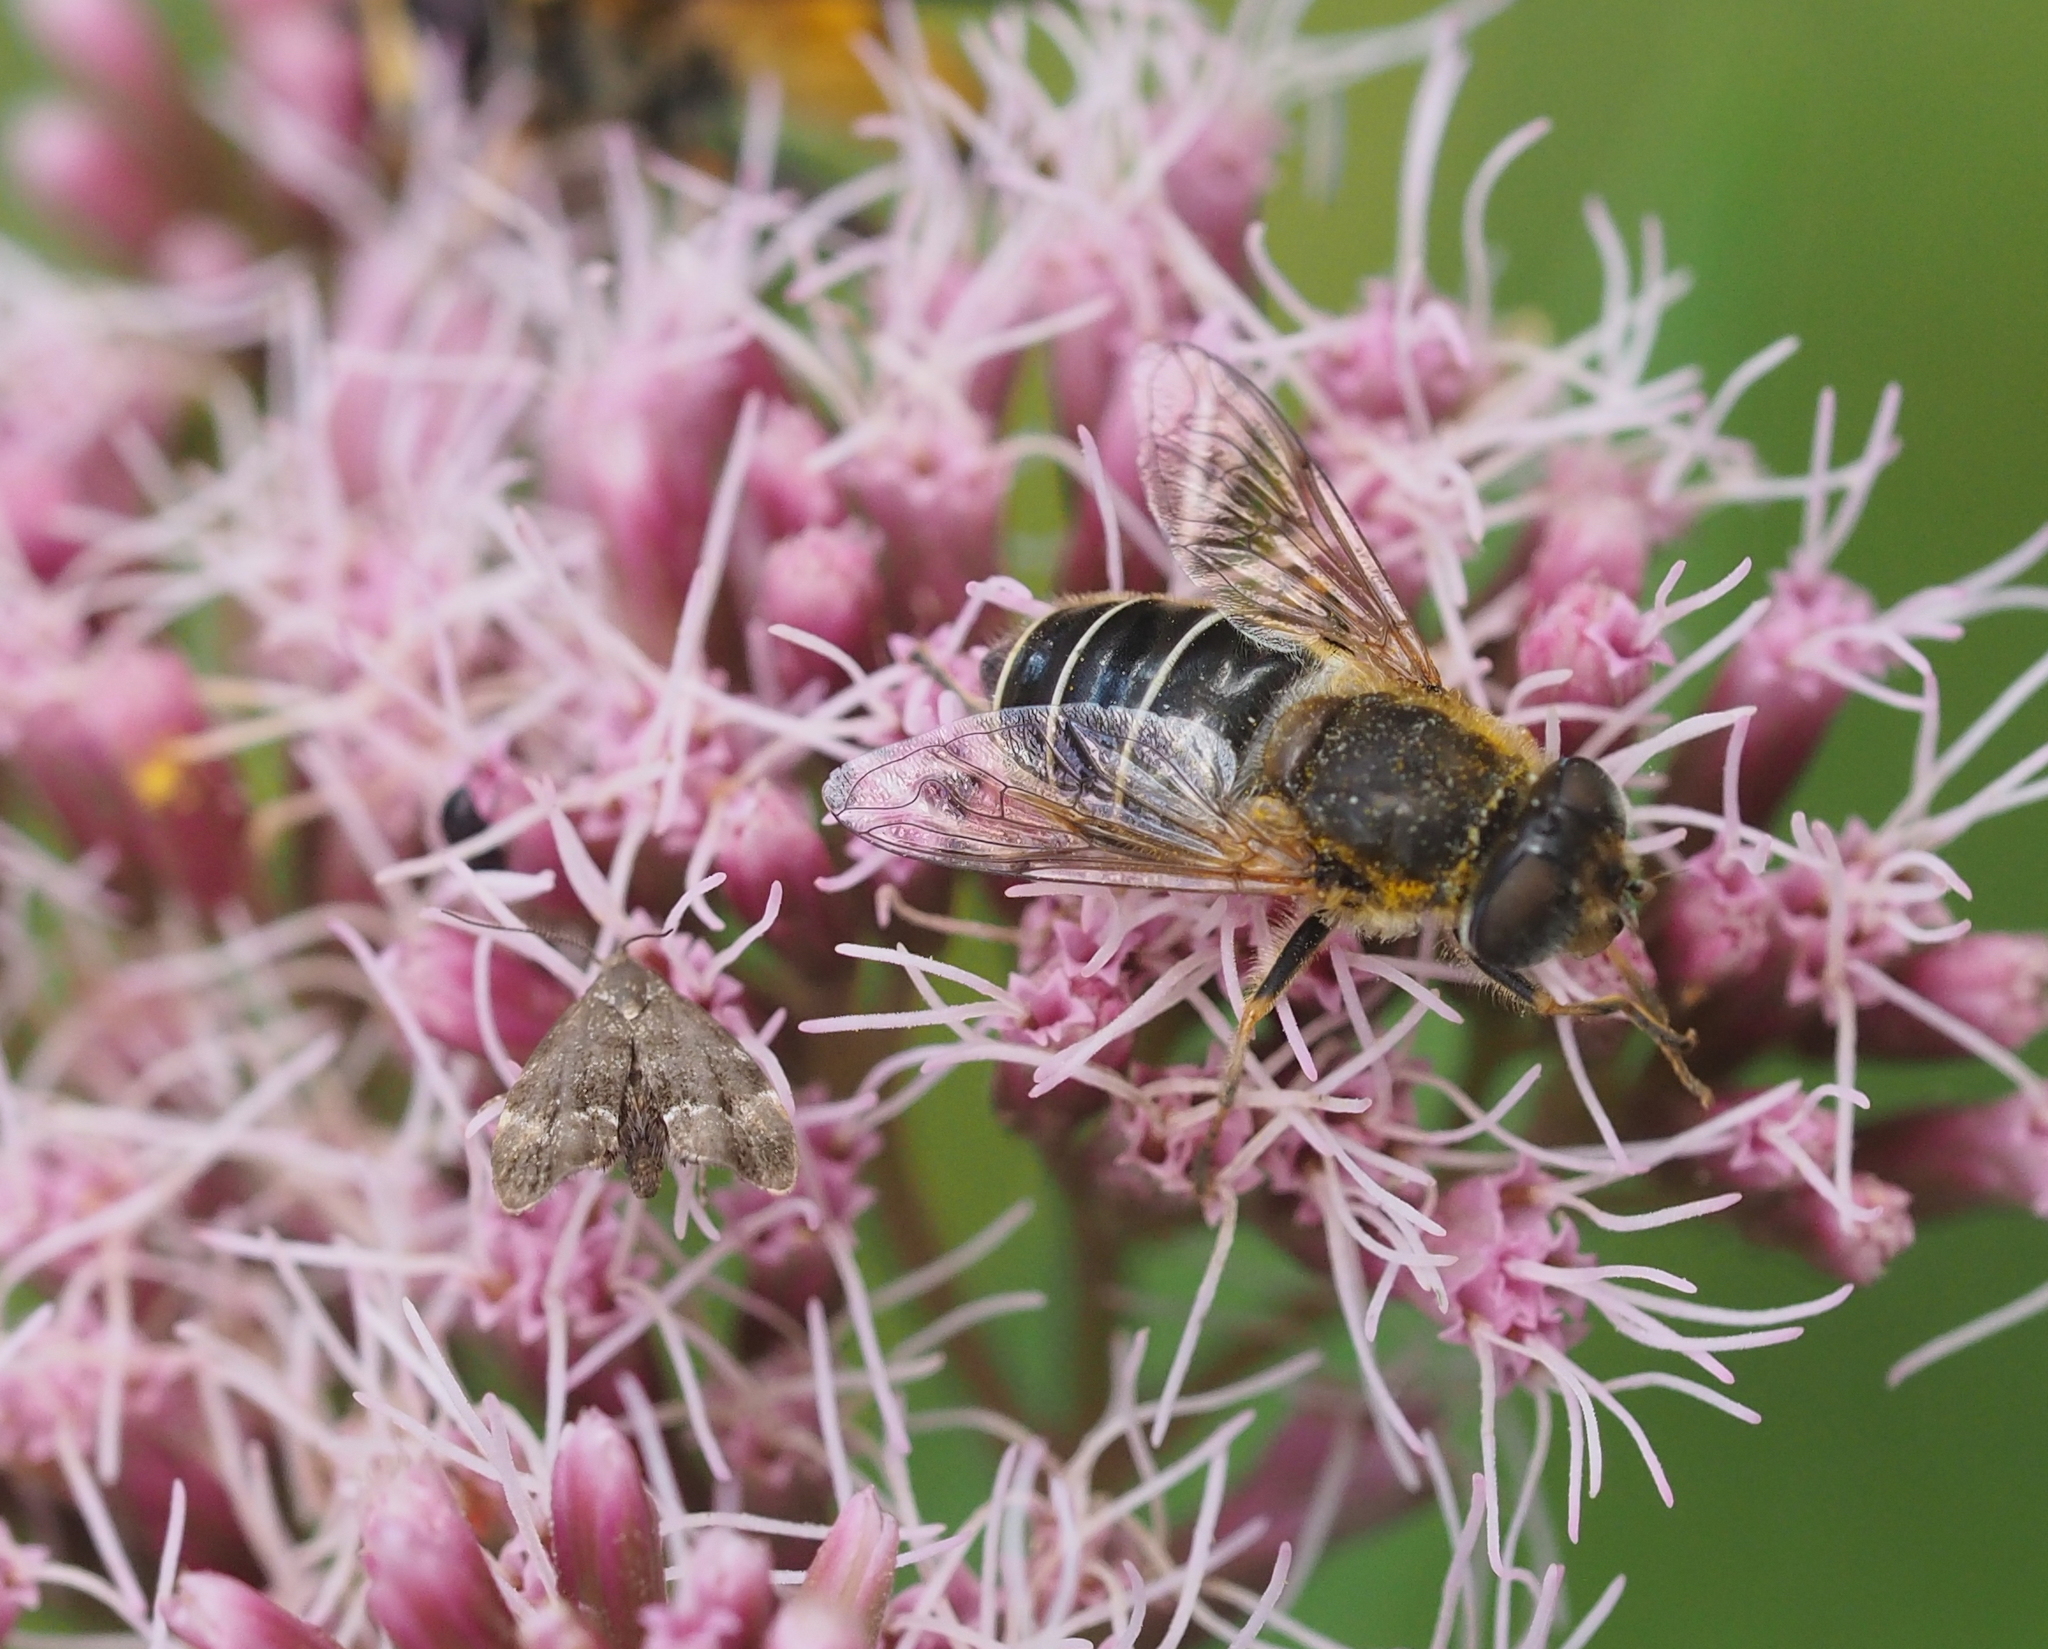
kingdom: Animalia
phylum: Arthropoda
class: Insecta
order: Diptera
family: Syrphidae
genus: Eristalis
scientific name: Eristalis nemorum
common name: Orange-spined drone fly
